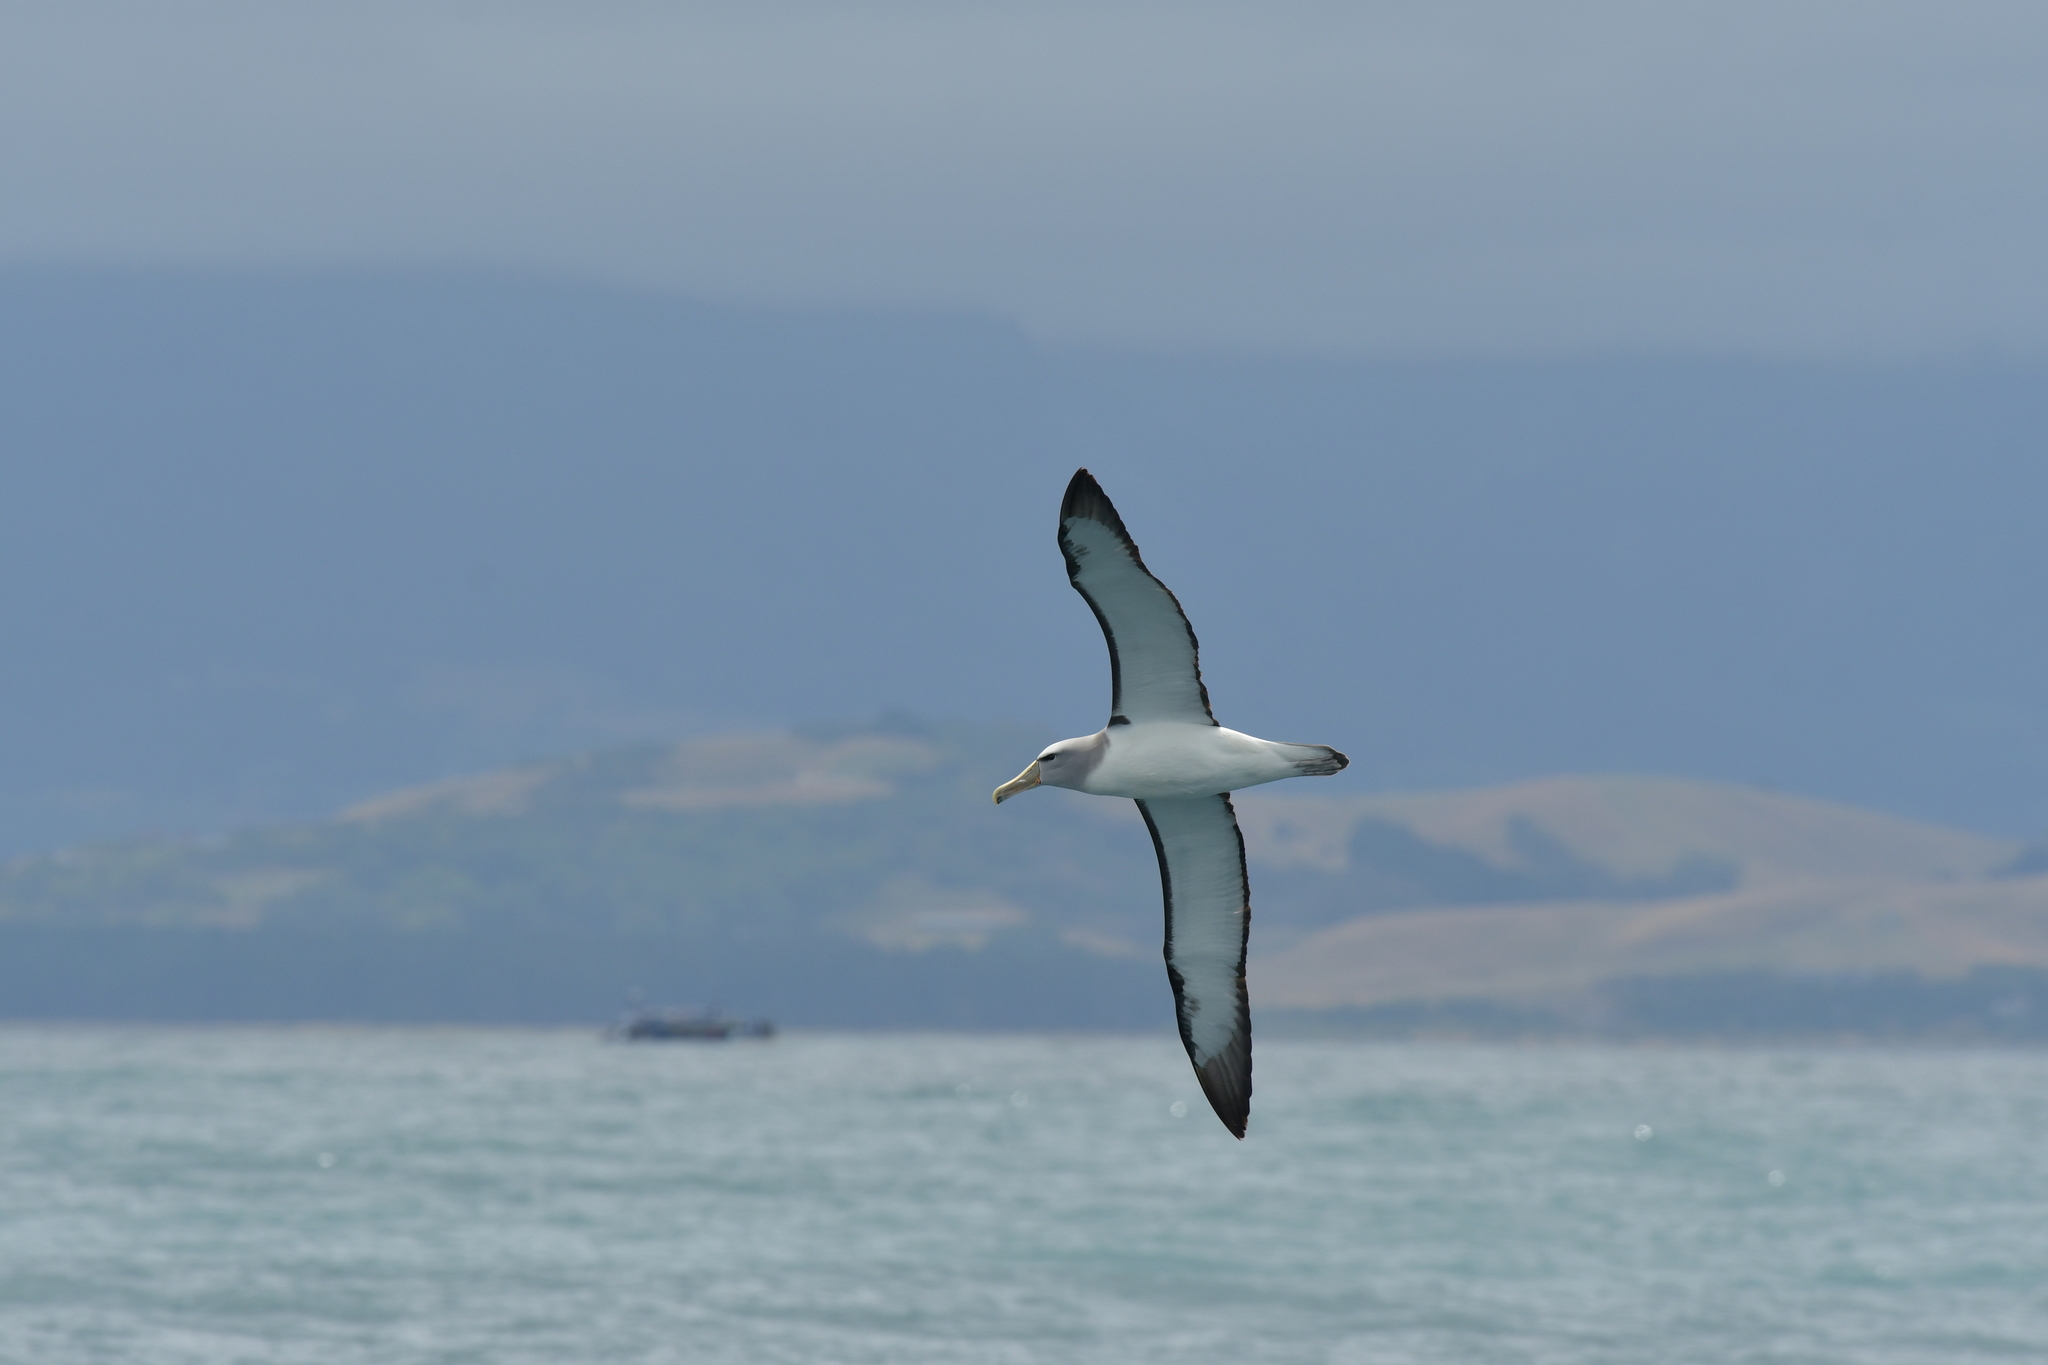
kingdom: Animalia
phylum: Chordata
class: Aves
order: Procellariiformes
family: Diomedeidae
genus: Thalassarche
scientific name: Thalassarche salvini
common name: Salvin's albatross
